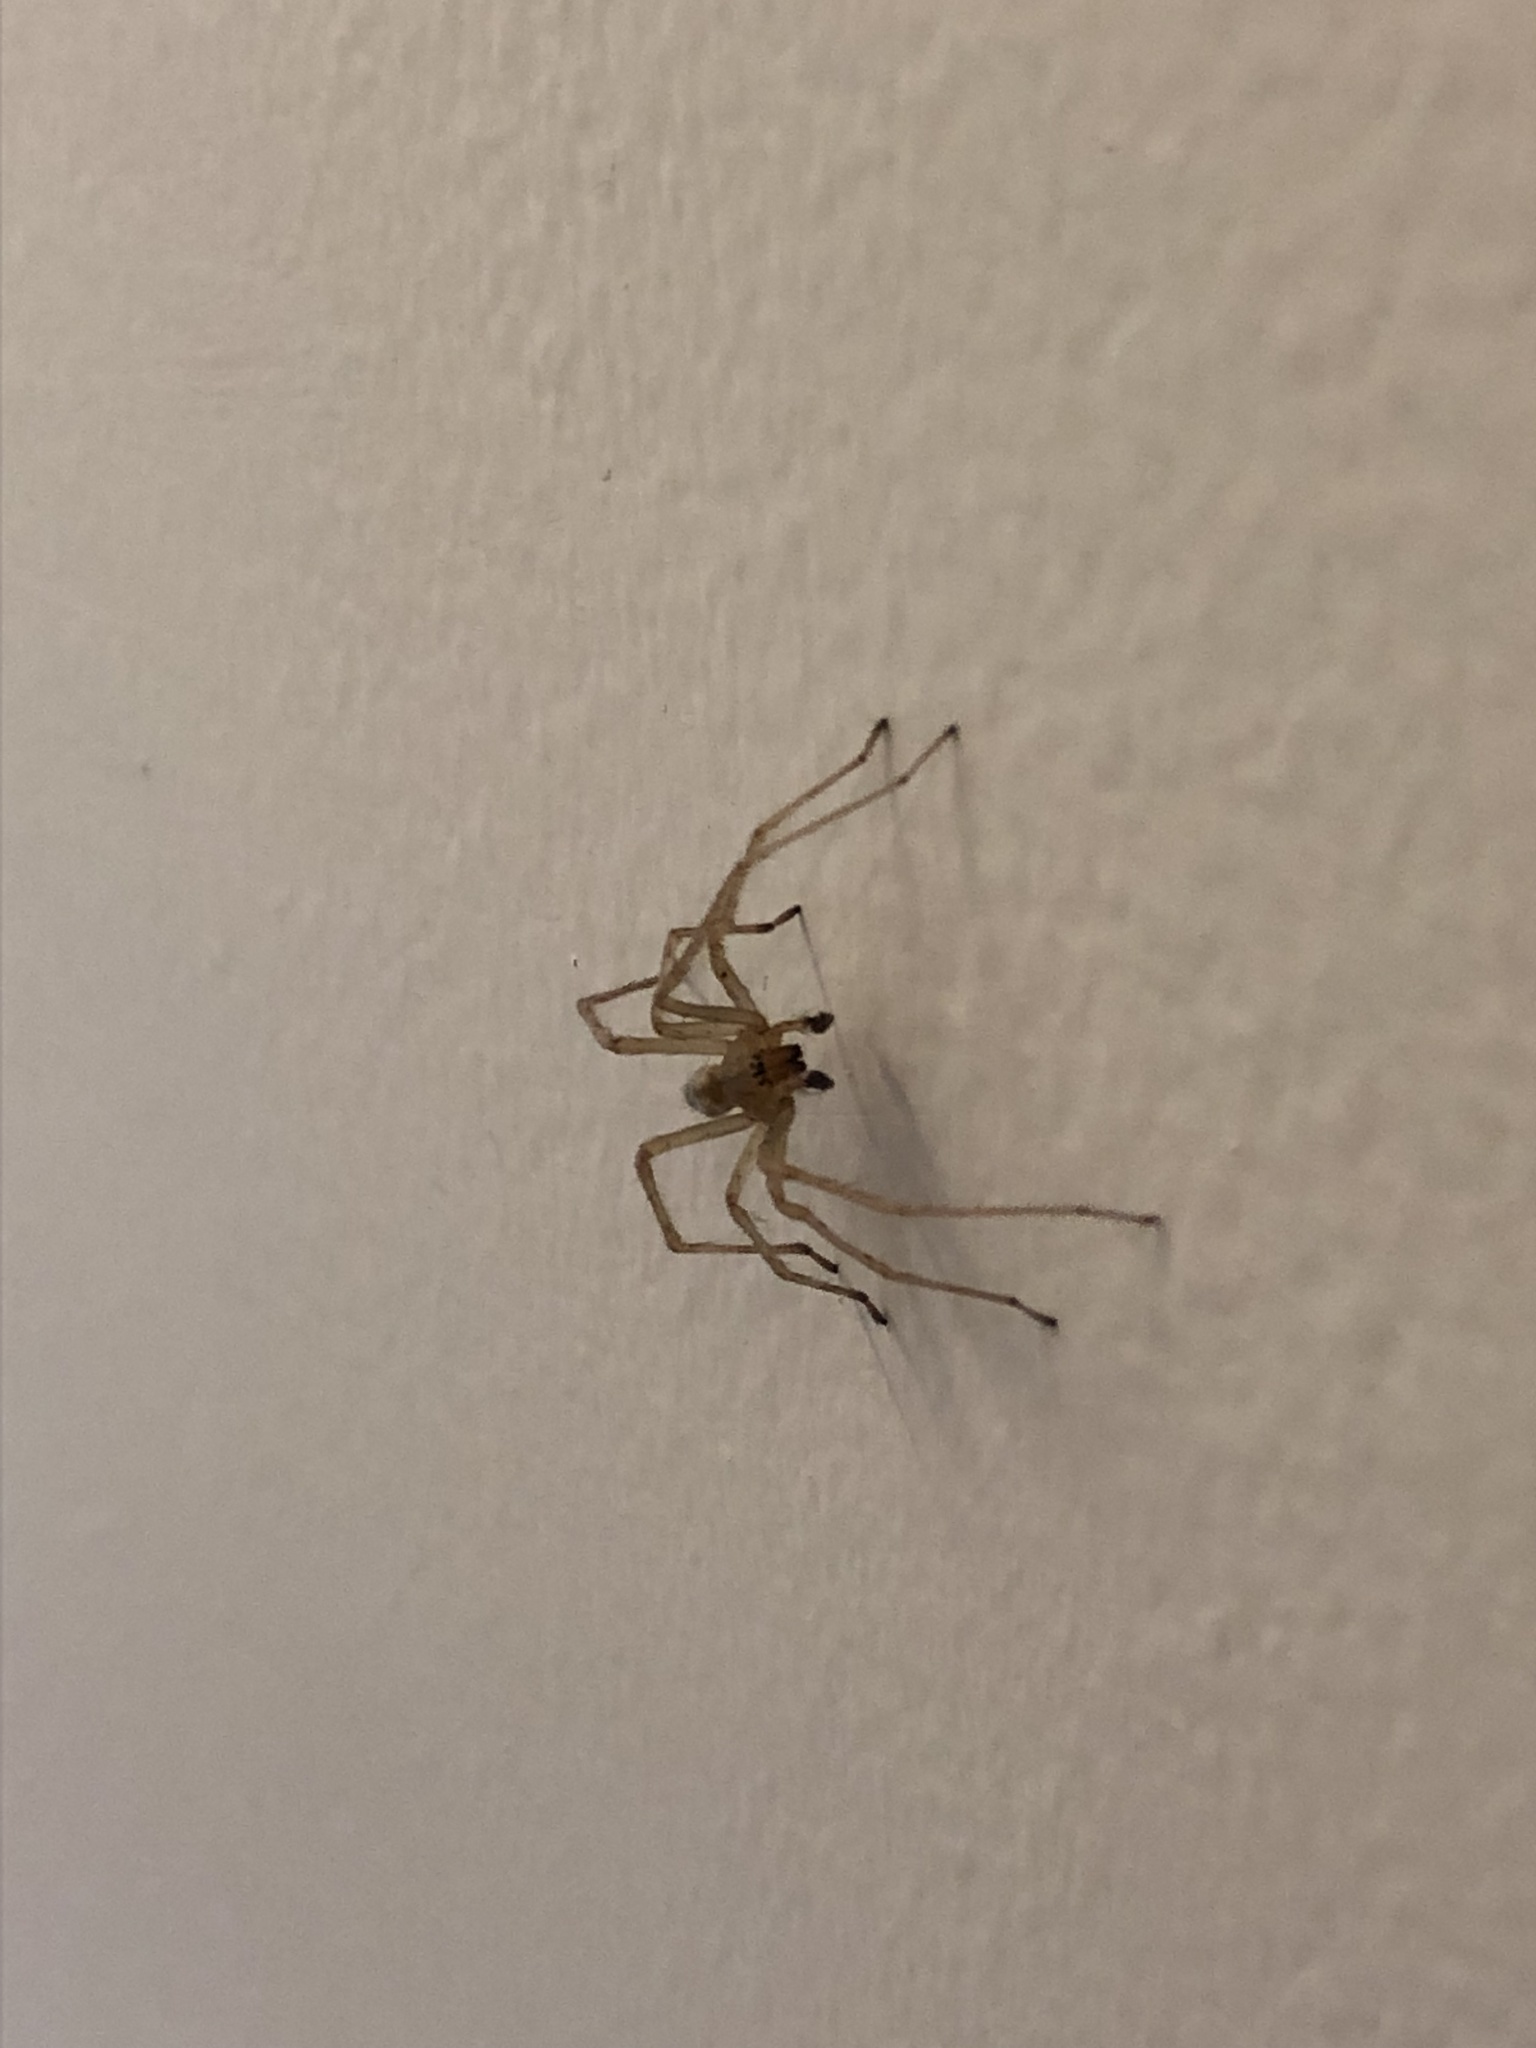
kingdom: Animalia
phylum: Arthropoda
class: Arachnida
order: Araneae
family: Cheiracanthiidae
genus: Cheiracanthium
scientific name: Cheiracanthium
